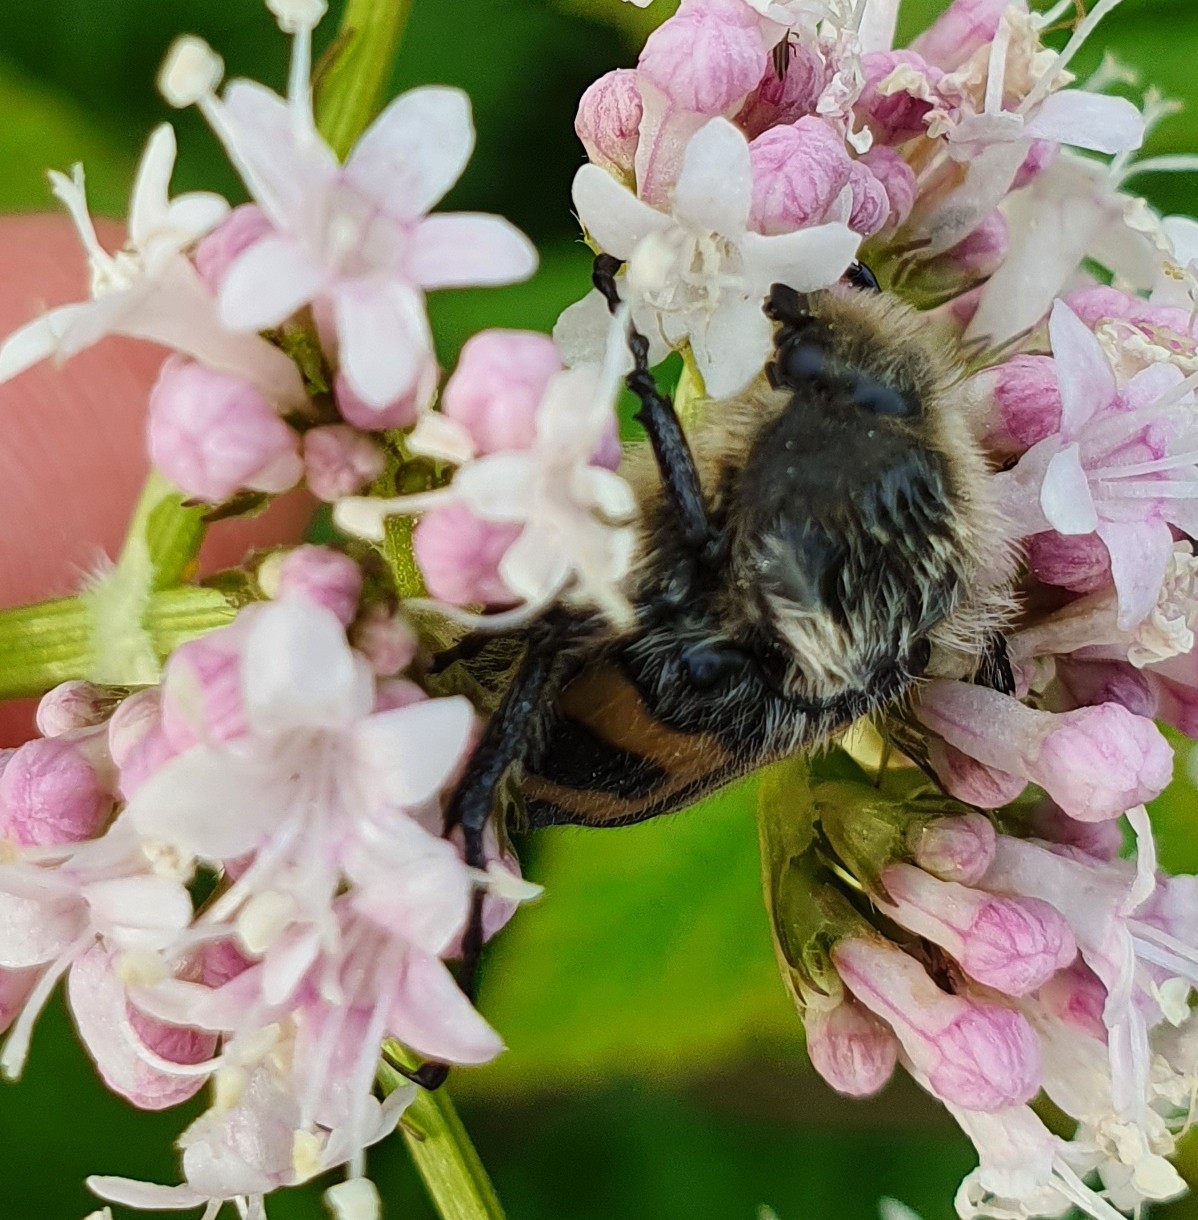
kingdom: Animalia
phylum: Arthropoda
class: Insecta
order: Coleoptera
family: Scarabaeidae
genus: Trichius
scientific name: Trichius fasciatus
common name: Bee beetle
